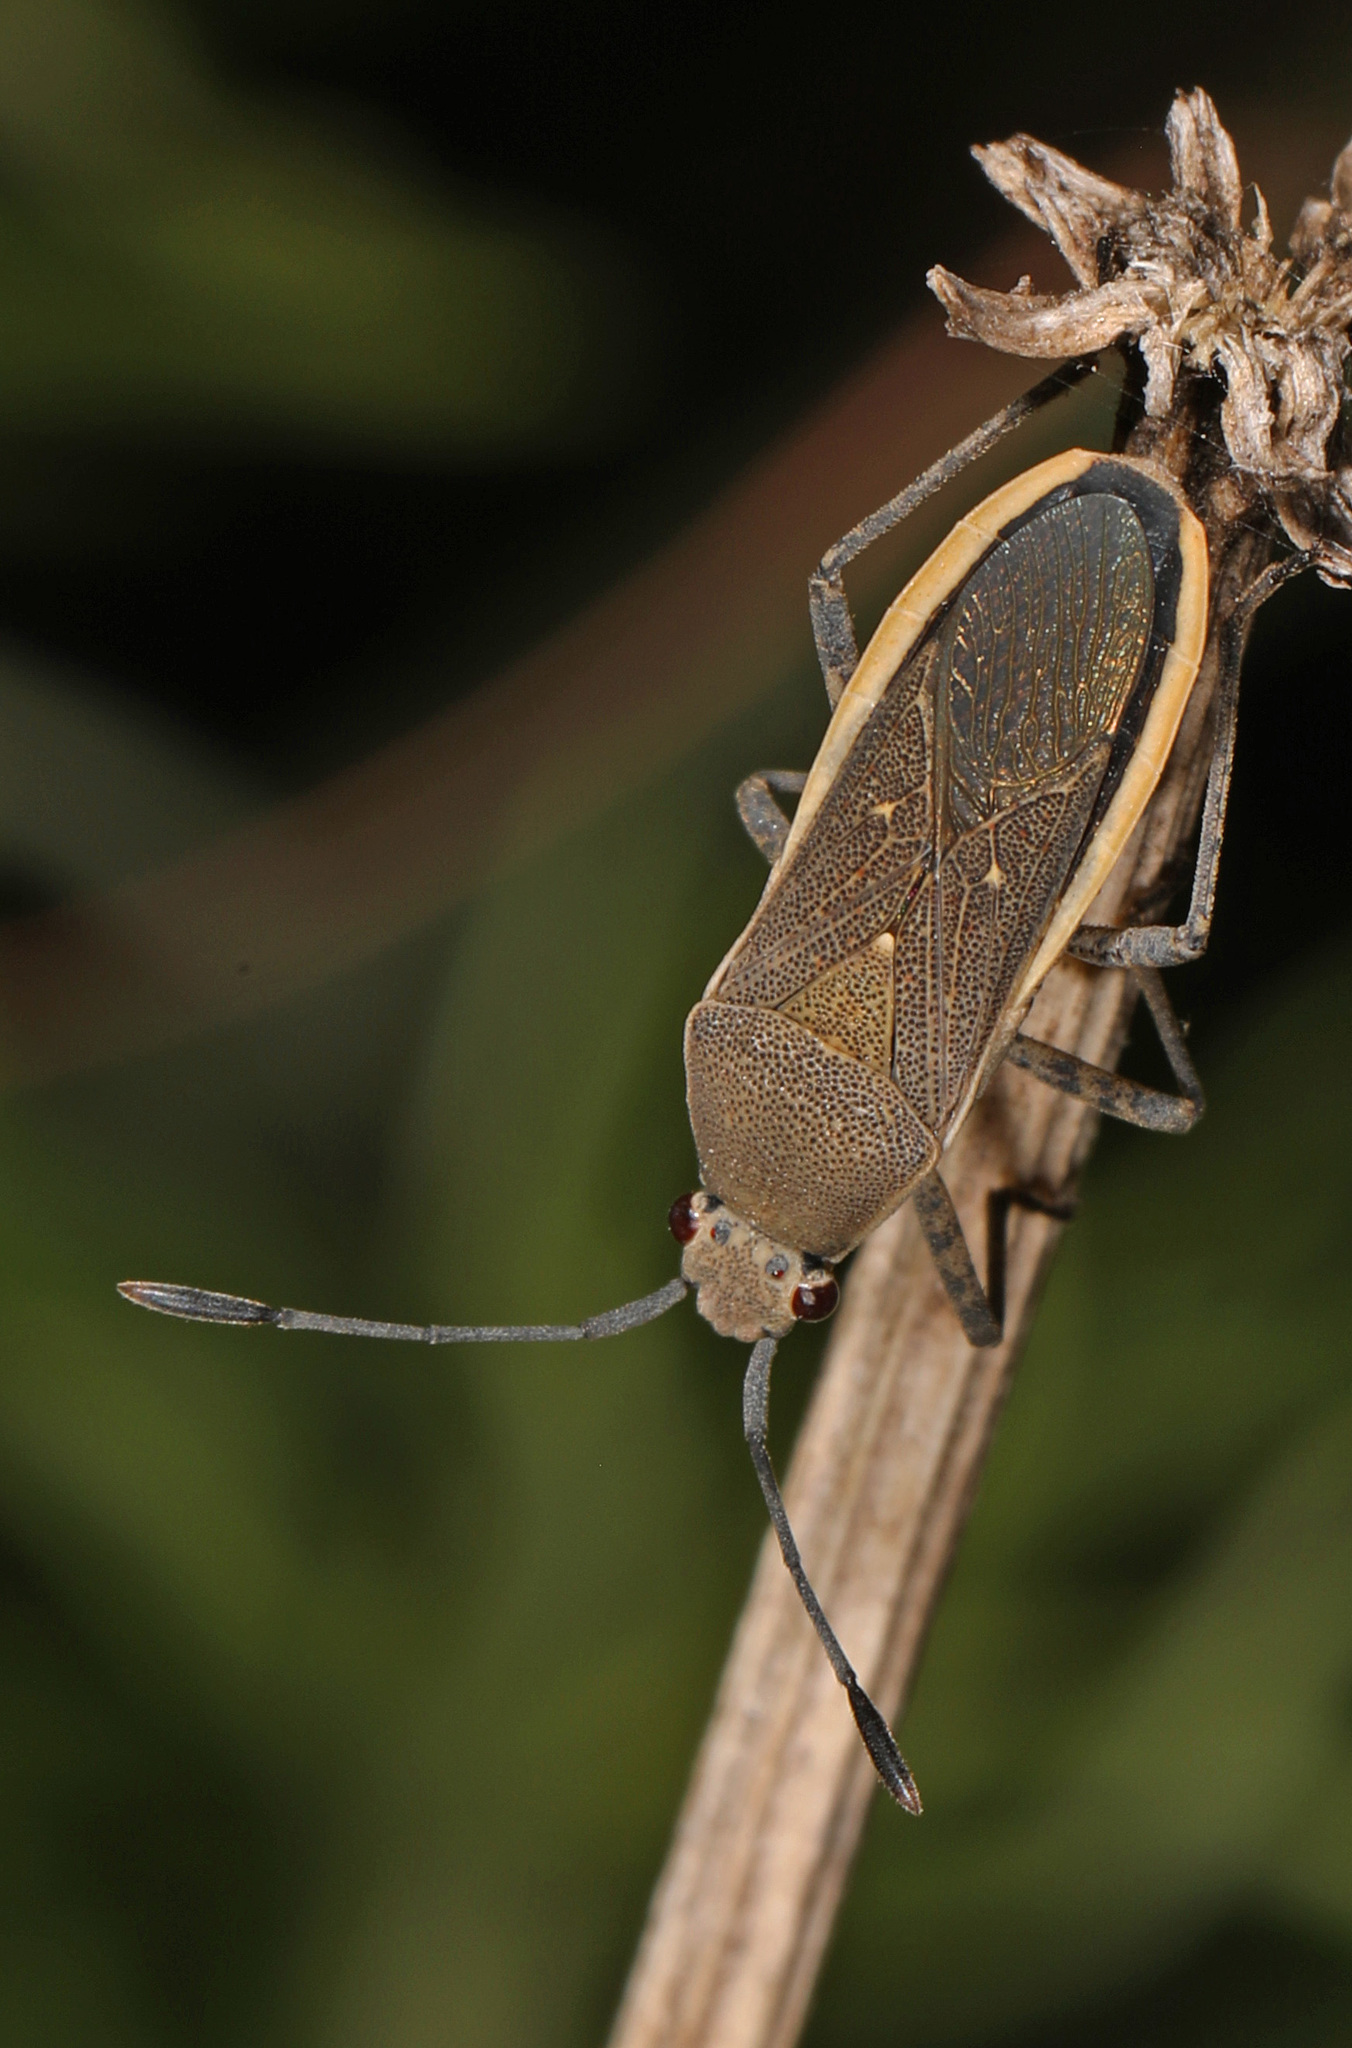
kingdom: Animalia
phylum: Arthropoda
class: Insecta
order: Hemiptera
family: Coreidae
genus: Catorhintha
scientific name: Catorhintha selector
